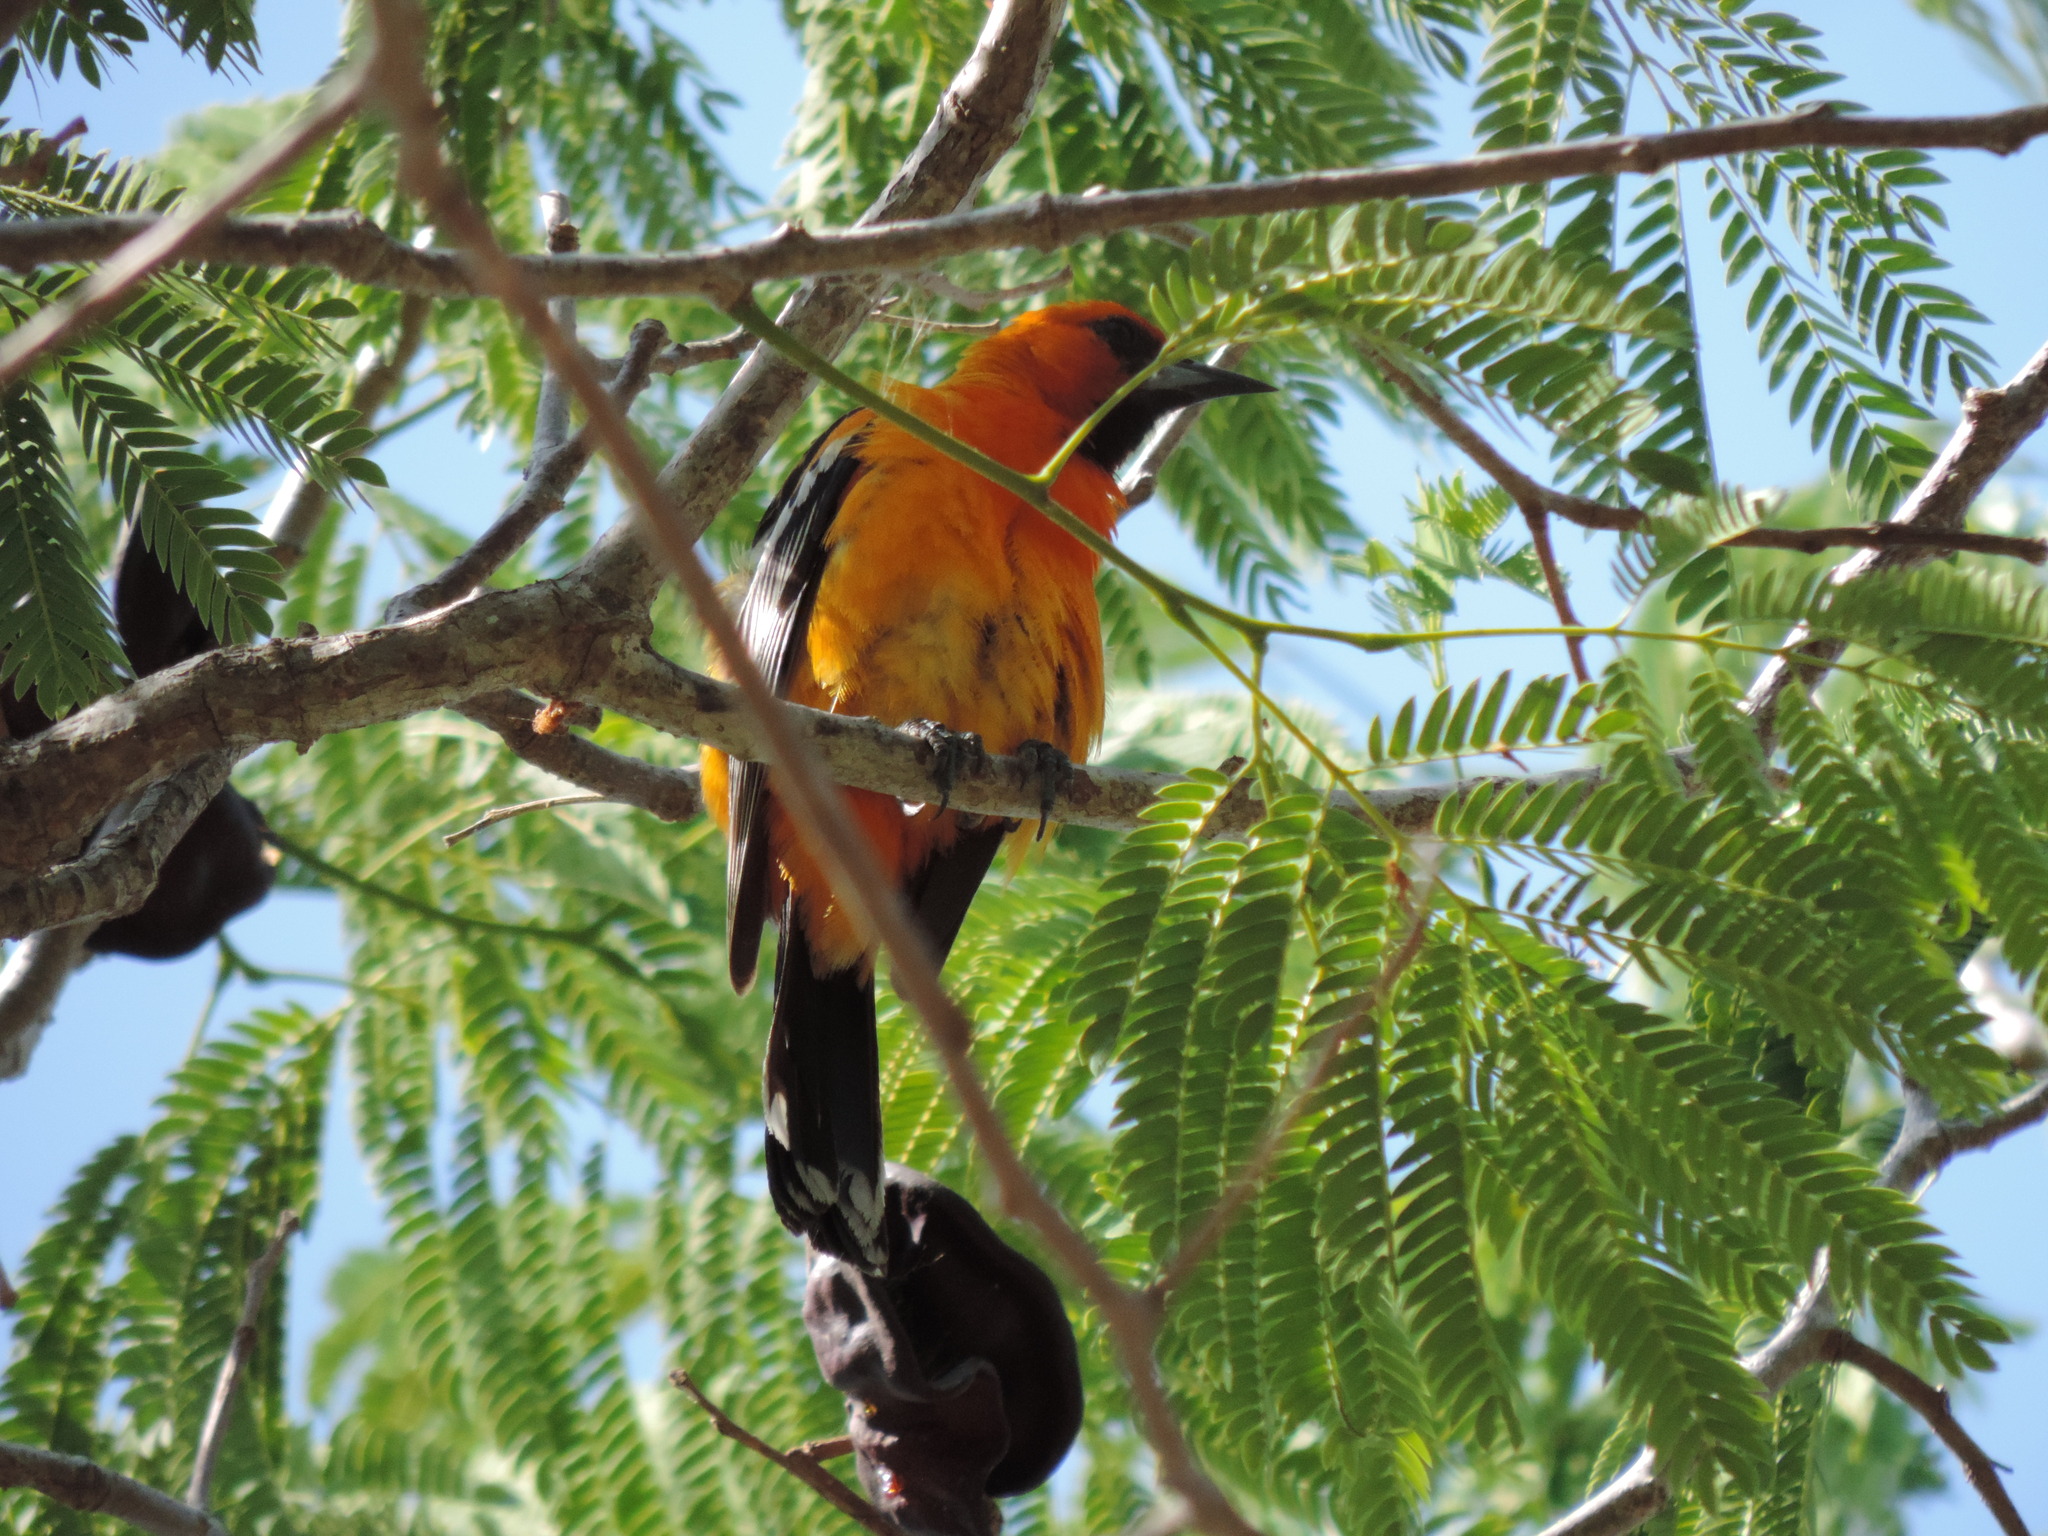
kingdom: Animalia
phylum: Chordata
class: Aves
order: Passeriformes
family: Icteridae
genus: Icterus
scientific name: Icterus pustulatus
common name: Streak-backed oriole
